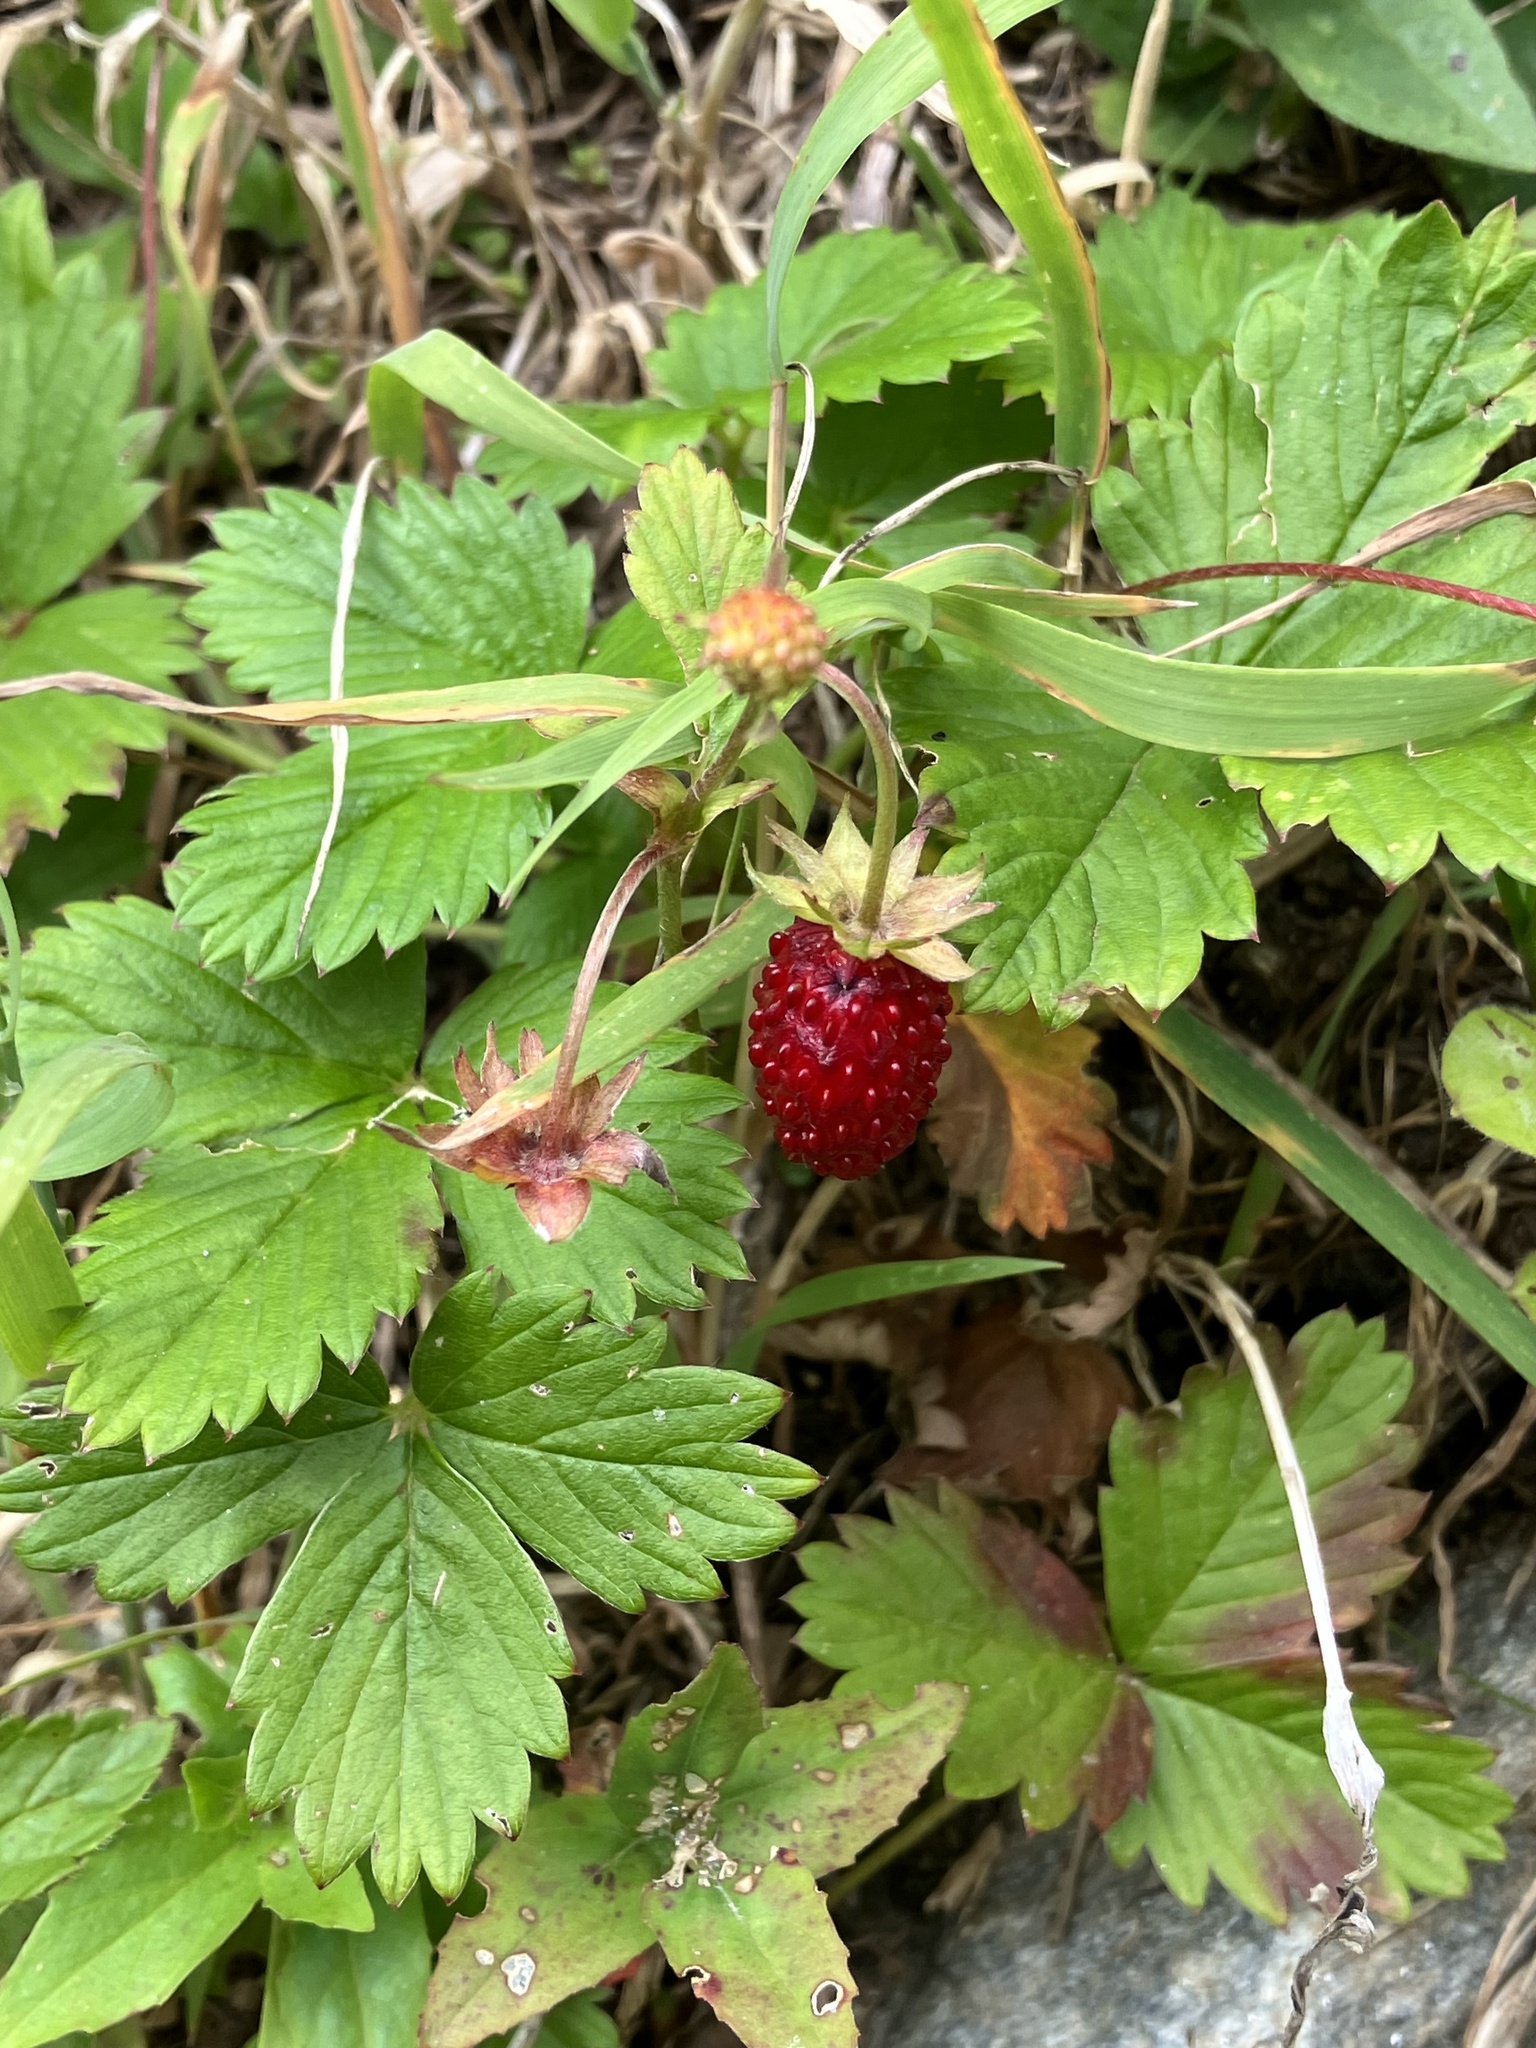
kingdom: Plantae
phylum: Tracheophyta
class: Magnoliopsida
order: Rosales
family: Rosaceae
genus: Fragaria
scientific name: Fragaria vesca
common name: Wild strawberry
